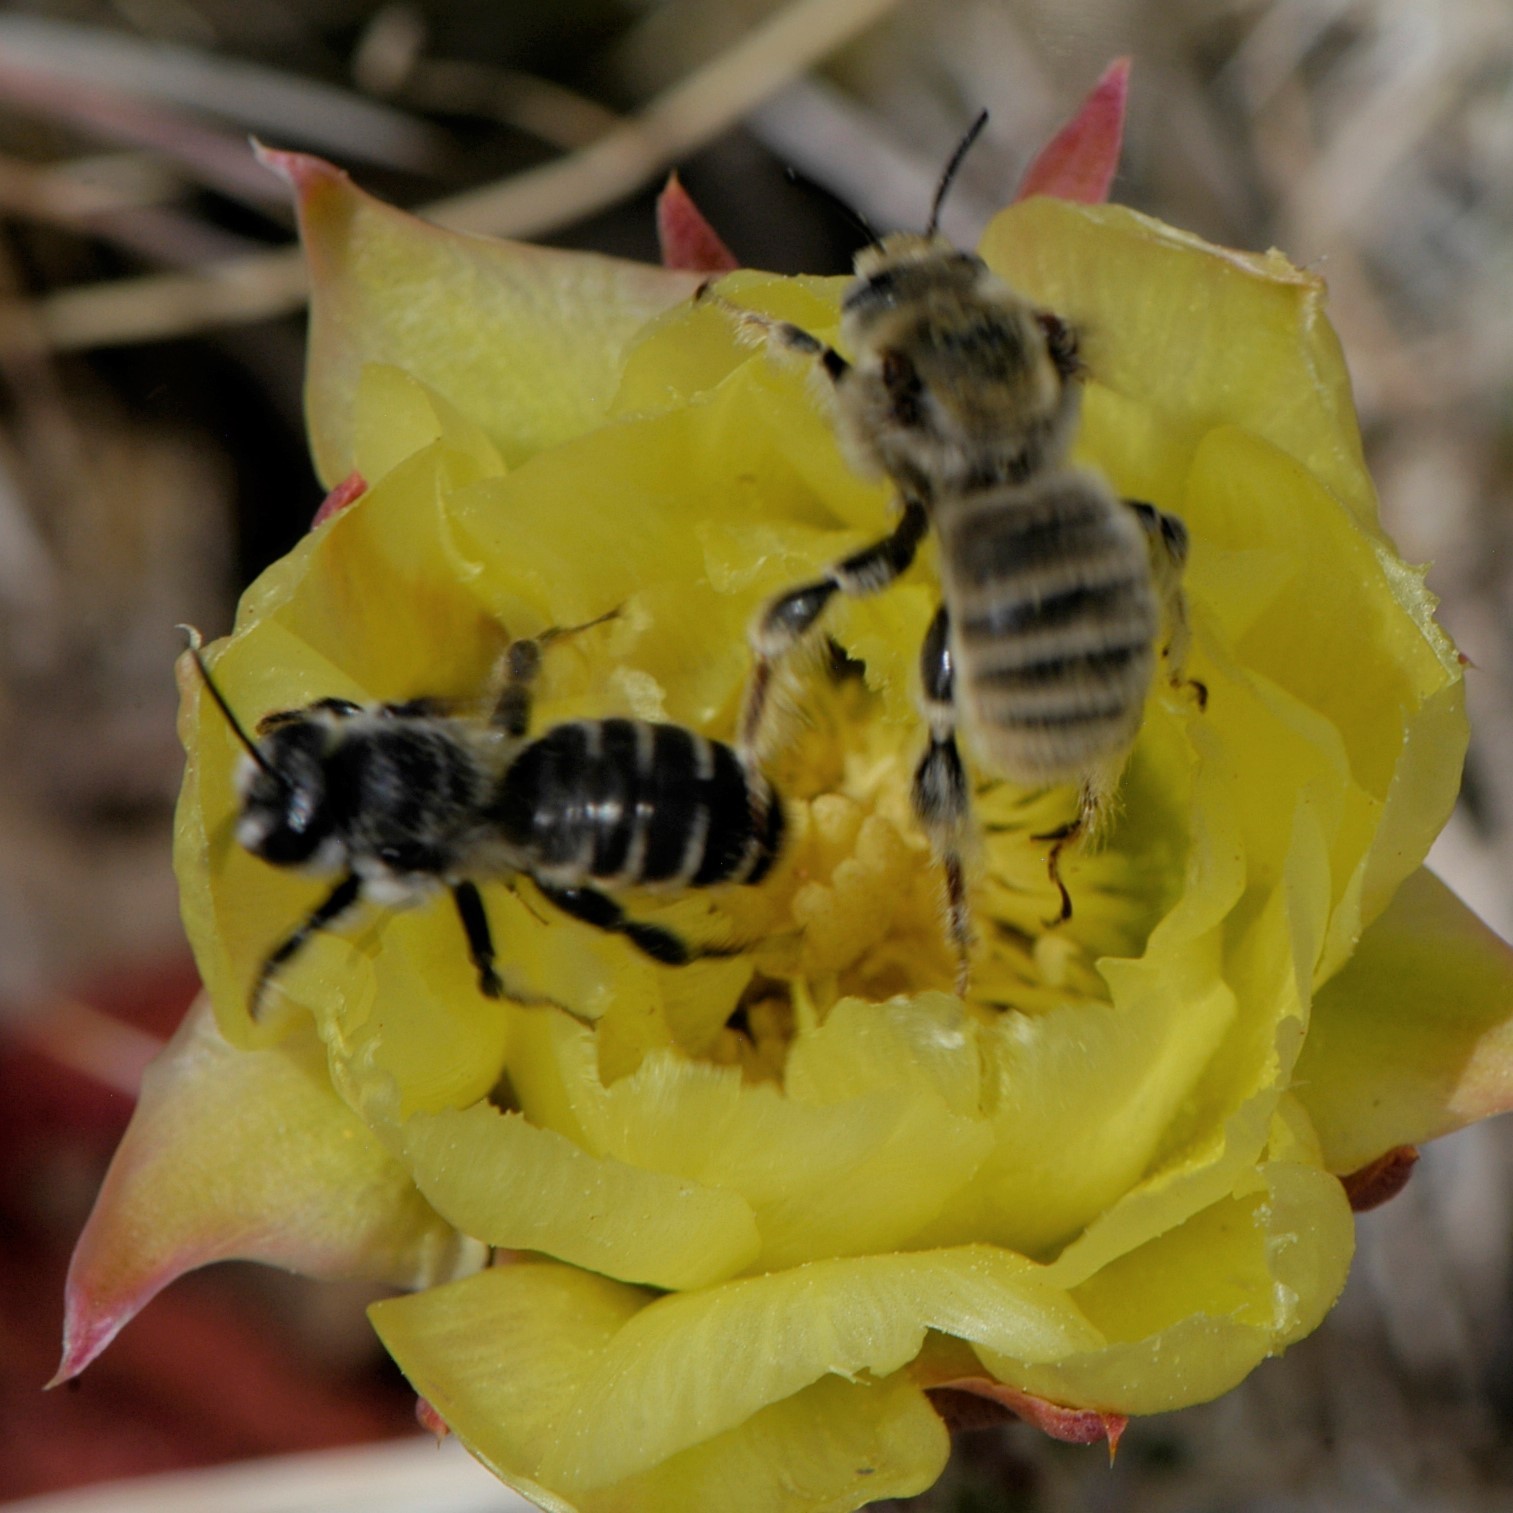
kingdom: Animalia
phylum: Arthropoda
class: Insecta
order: Hymenoptera
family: Apidae
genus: Diadasia
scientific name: Diadasia
